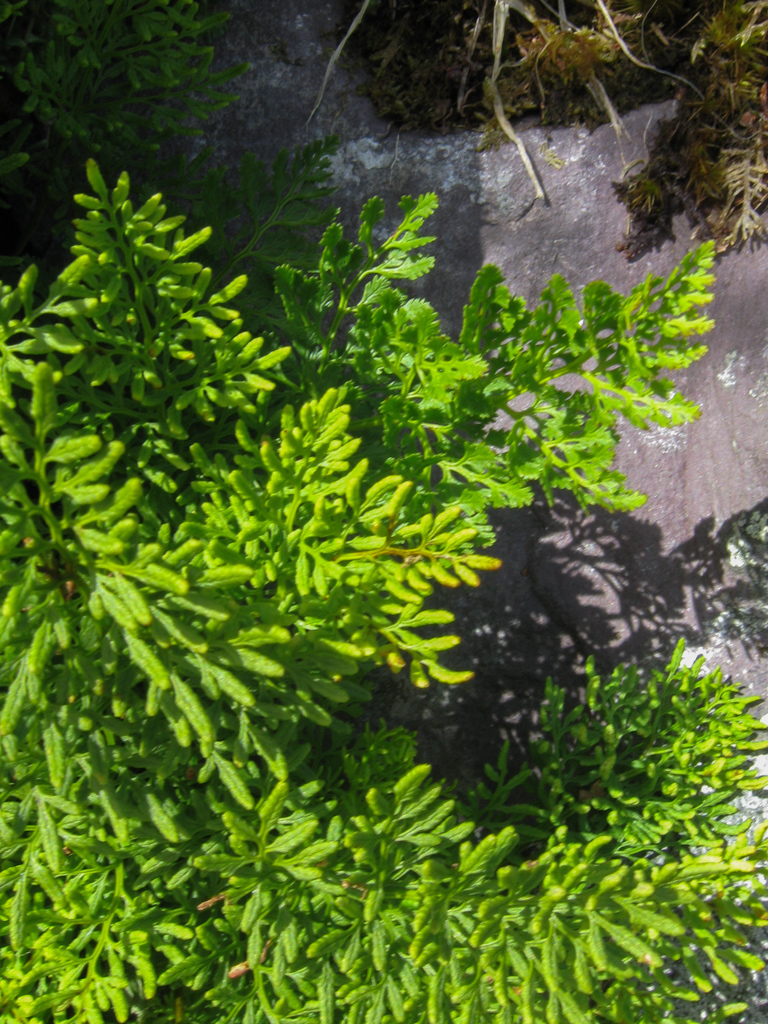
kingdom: Plantae
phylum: Tracheophyta
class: Polypodiopsida
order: Polypodiales
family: Pteridaceae
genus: Cryptogramma
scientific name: Cryptogramma crispa
